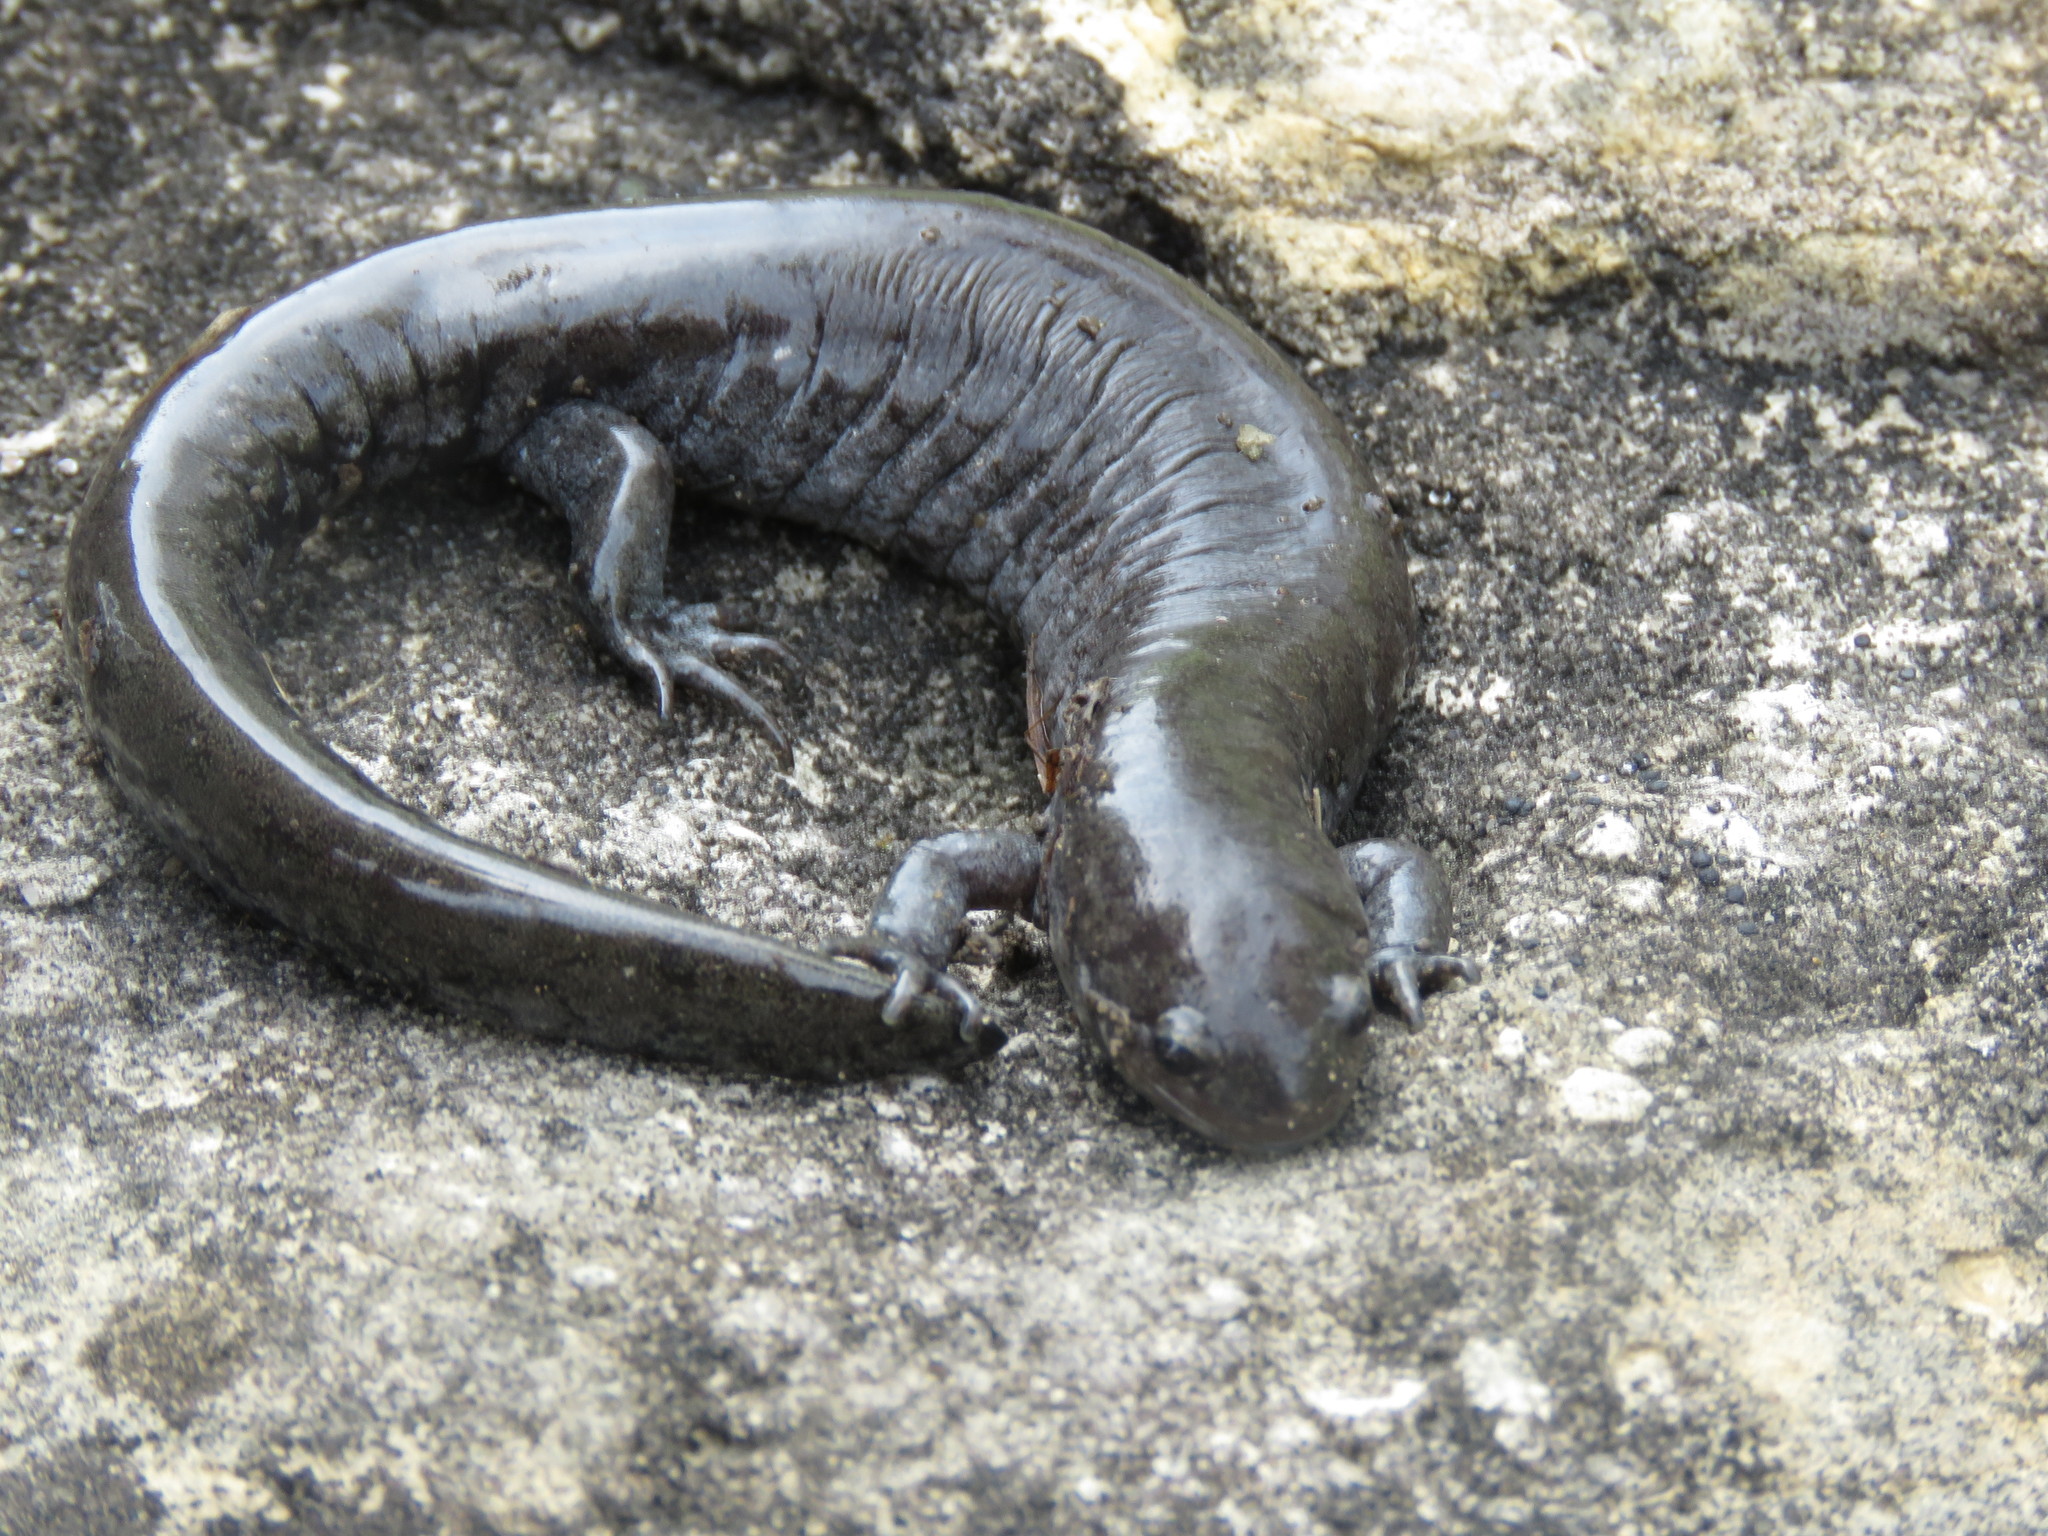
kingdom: Animalia
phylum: Chordata
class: Amphibia
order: Caudata
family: Ambystomatidae
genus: Ambystoma
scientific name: Ambystoma texanum
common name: Small-mouth salamander
